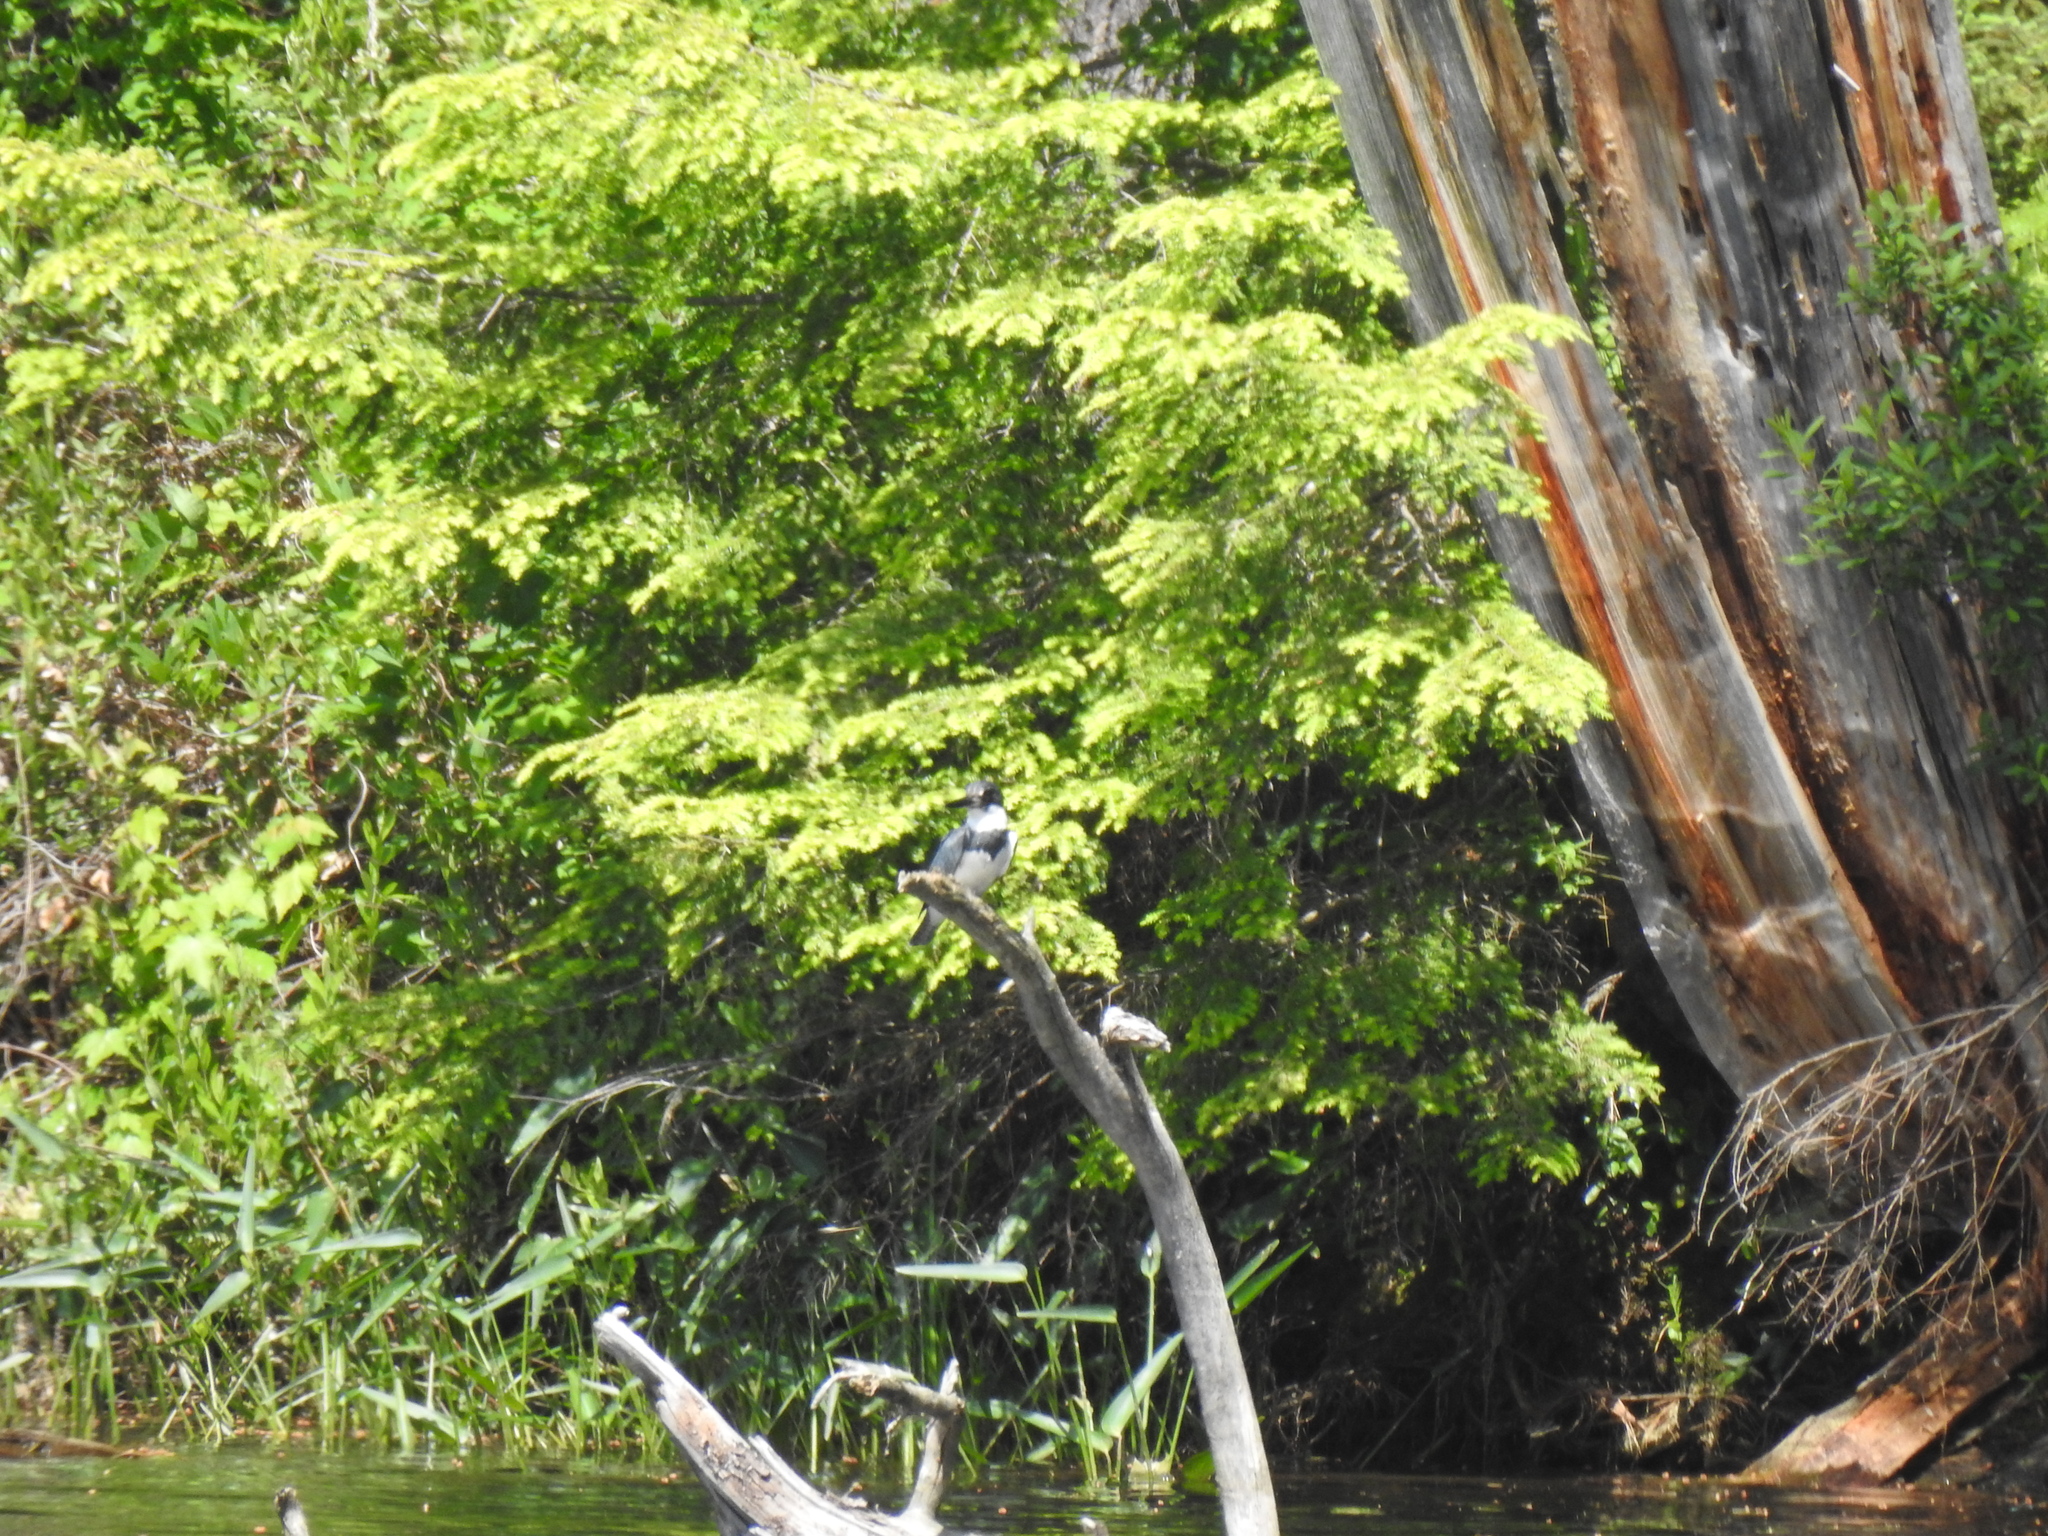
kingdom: Animalia
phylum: Chordata
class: Aves
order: Coraciiformes
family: Alcedinidae
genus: Megaceryle
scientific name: Megaceryle alcyon
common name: Belted kingfisher
